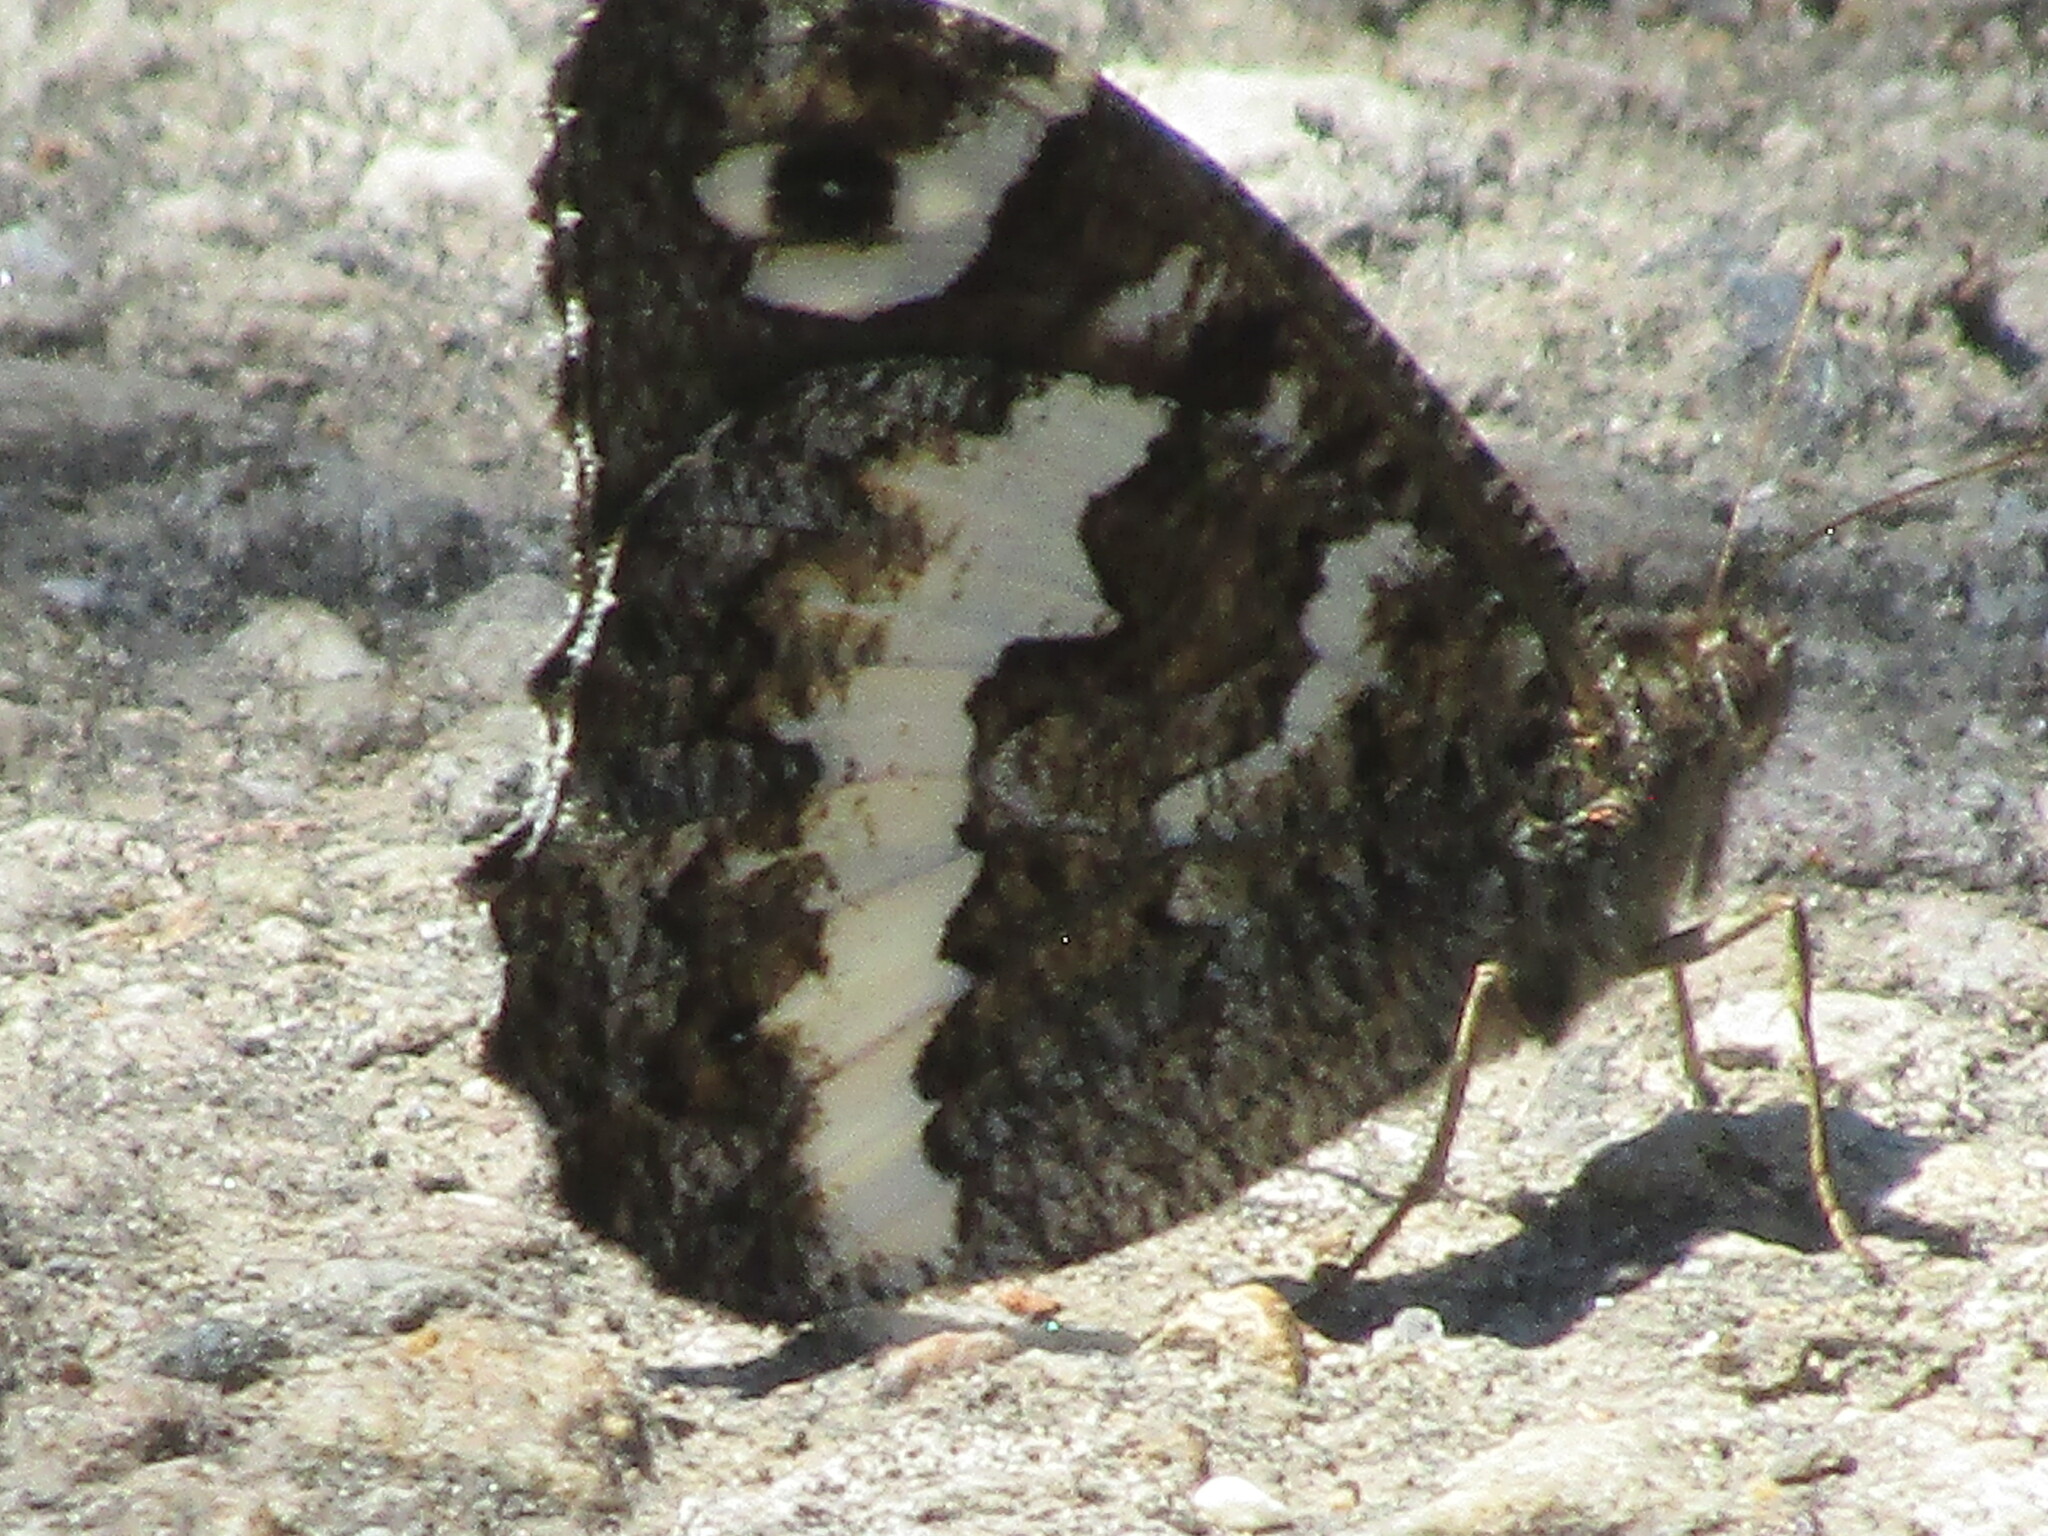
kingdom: Animalia
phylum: Arthropoda
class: Insecta
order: Lepidoptera
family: Lycaenidae
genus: Loweia
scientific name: Loweia tityrus
